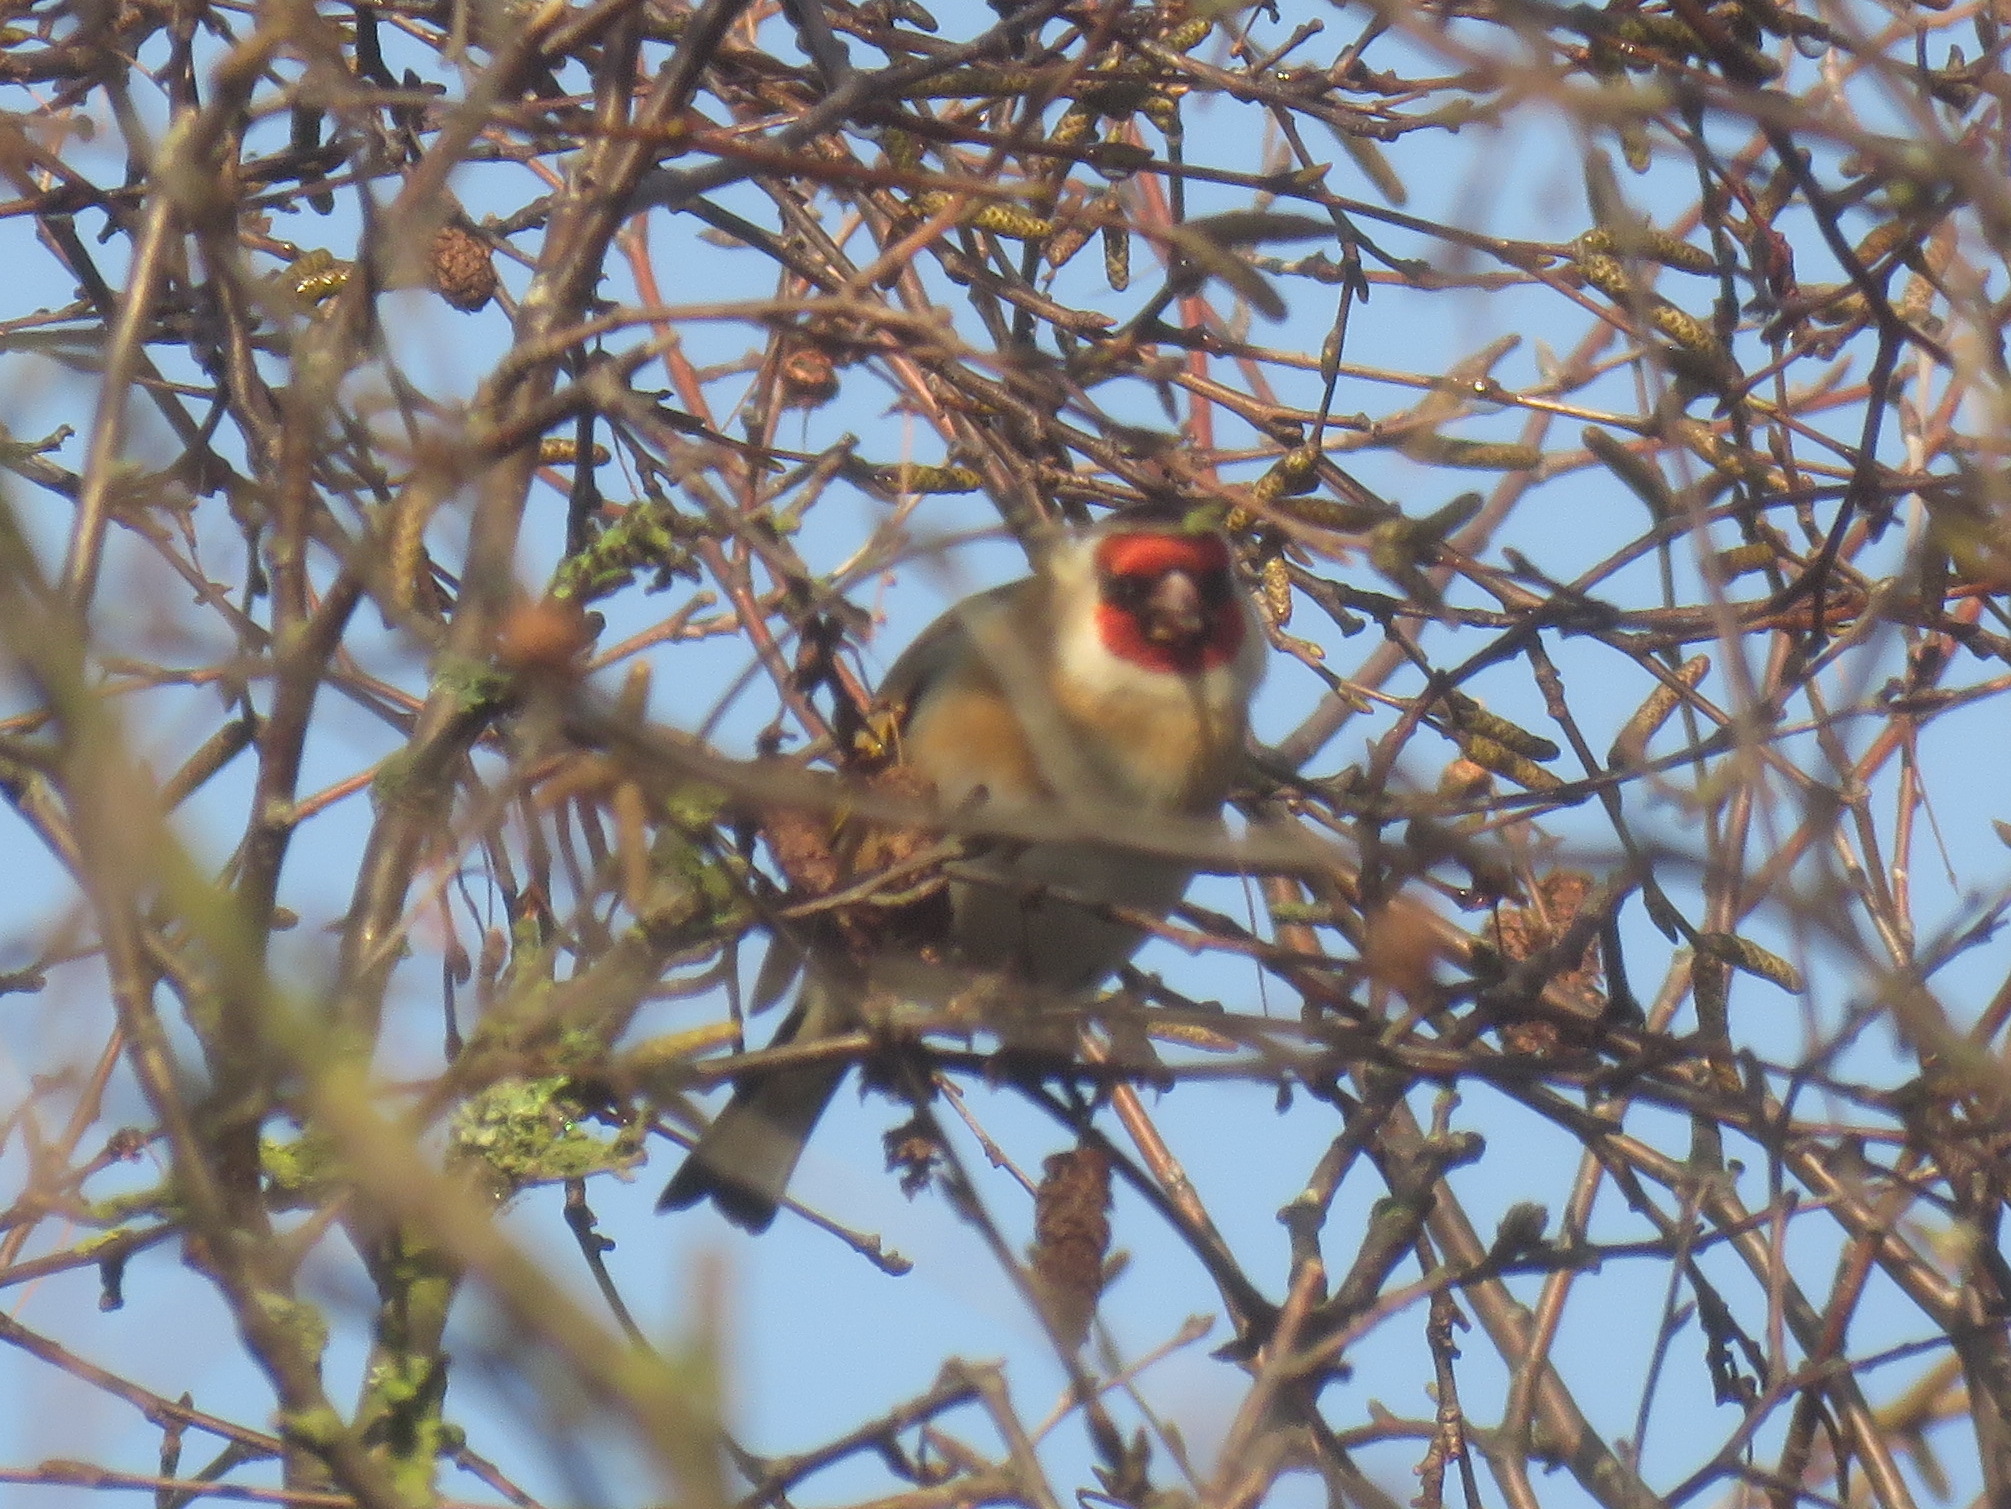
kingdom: Animalia
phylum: Chordata
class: Aves
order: Passeriformes
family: Fringillidae
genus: Carduelis
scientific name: Carduelis carduelis
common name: European goldfinch
